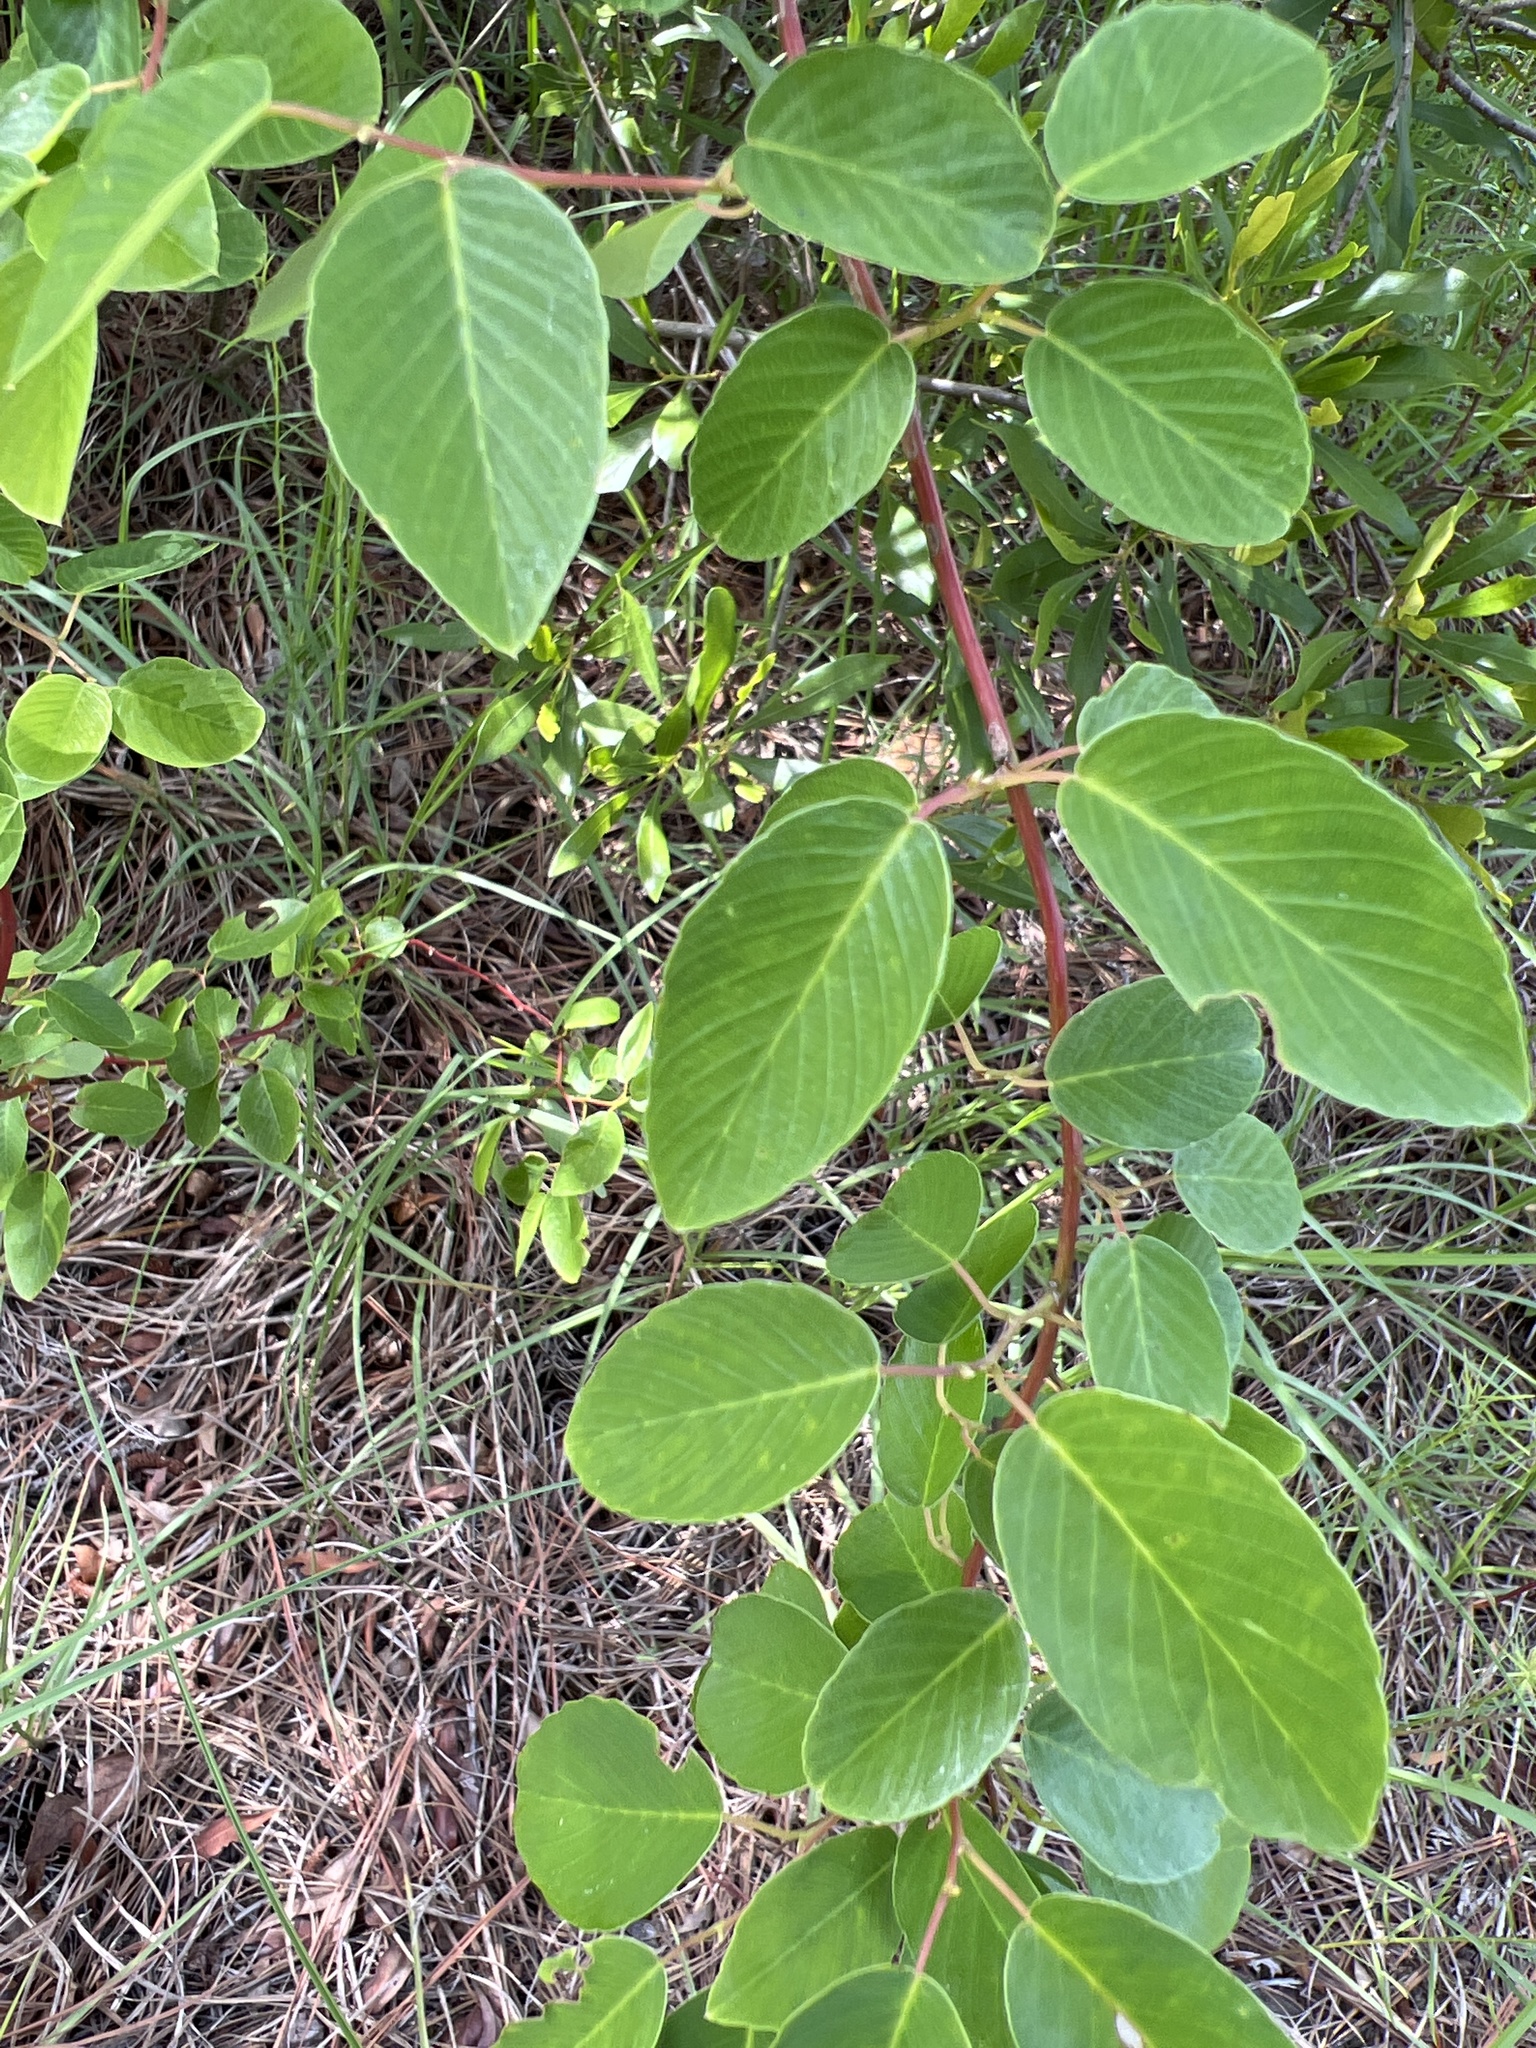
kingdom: Plantae
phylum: Tracheophyta
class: Magnoliopsida
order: Rosales
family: Rhamnaceae
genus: Berchemia
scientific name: Berchemia scandens
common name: Supplejack
